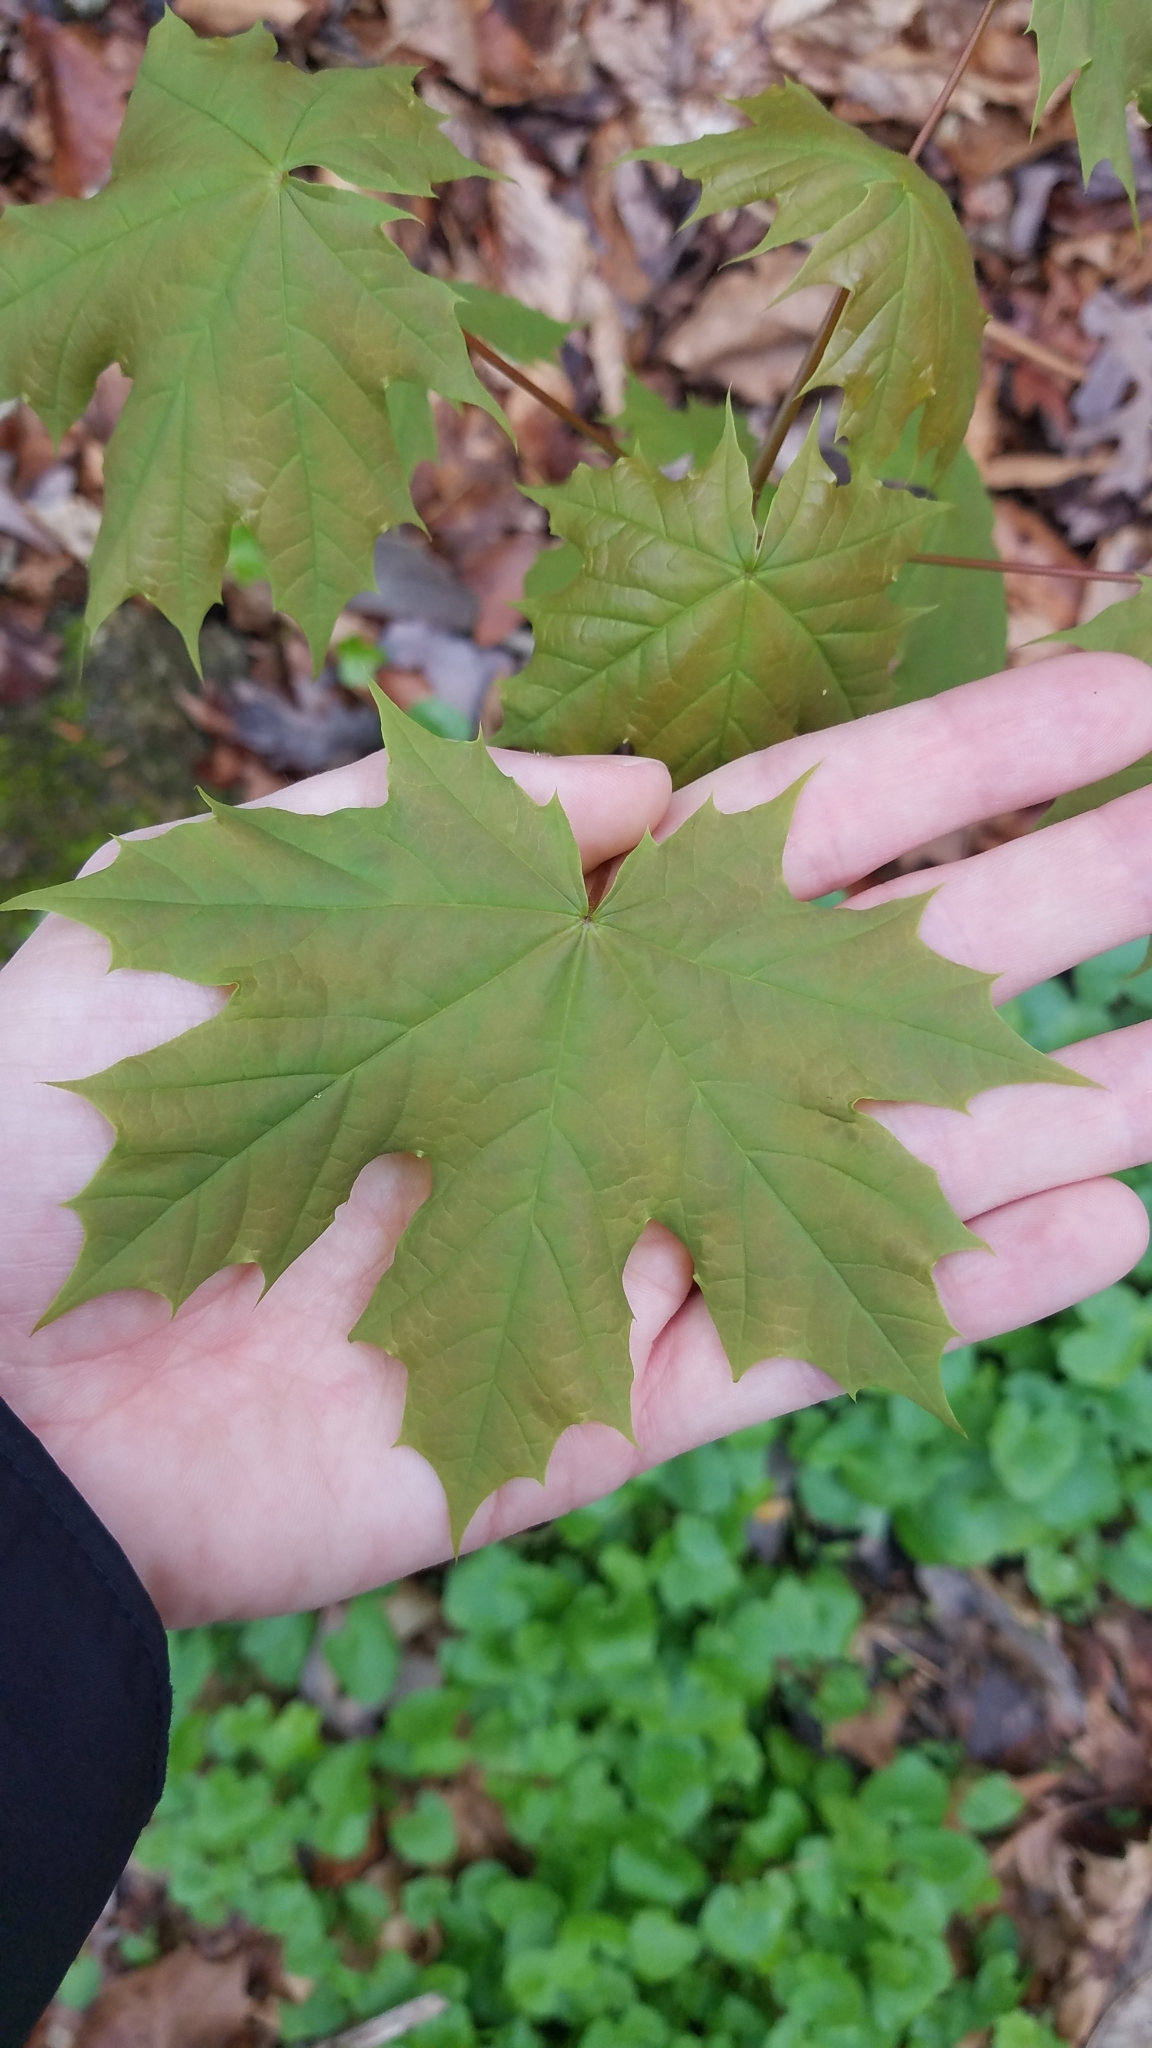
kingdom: Plantae
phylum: Tracheophyta
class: Magnoliopsida
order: Sapindales
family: Sapindaceae
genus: Acer
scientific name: Acer platanoides
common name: Norway maple
